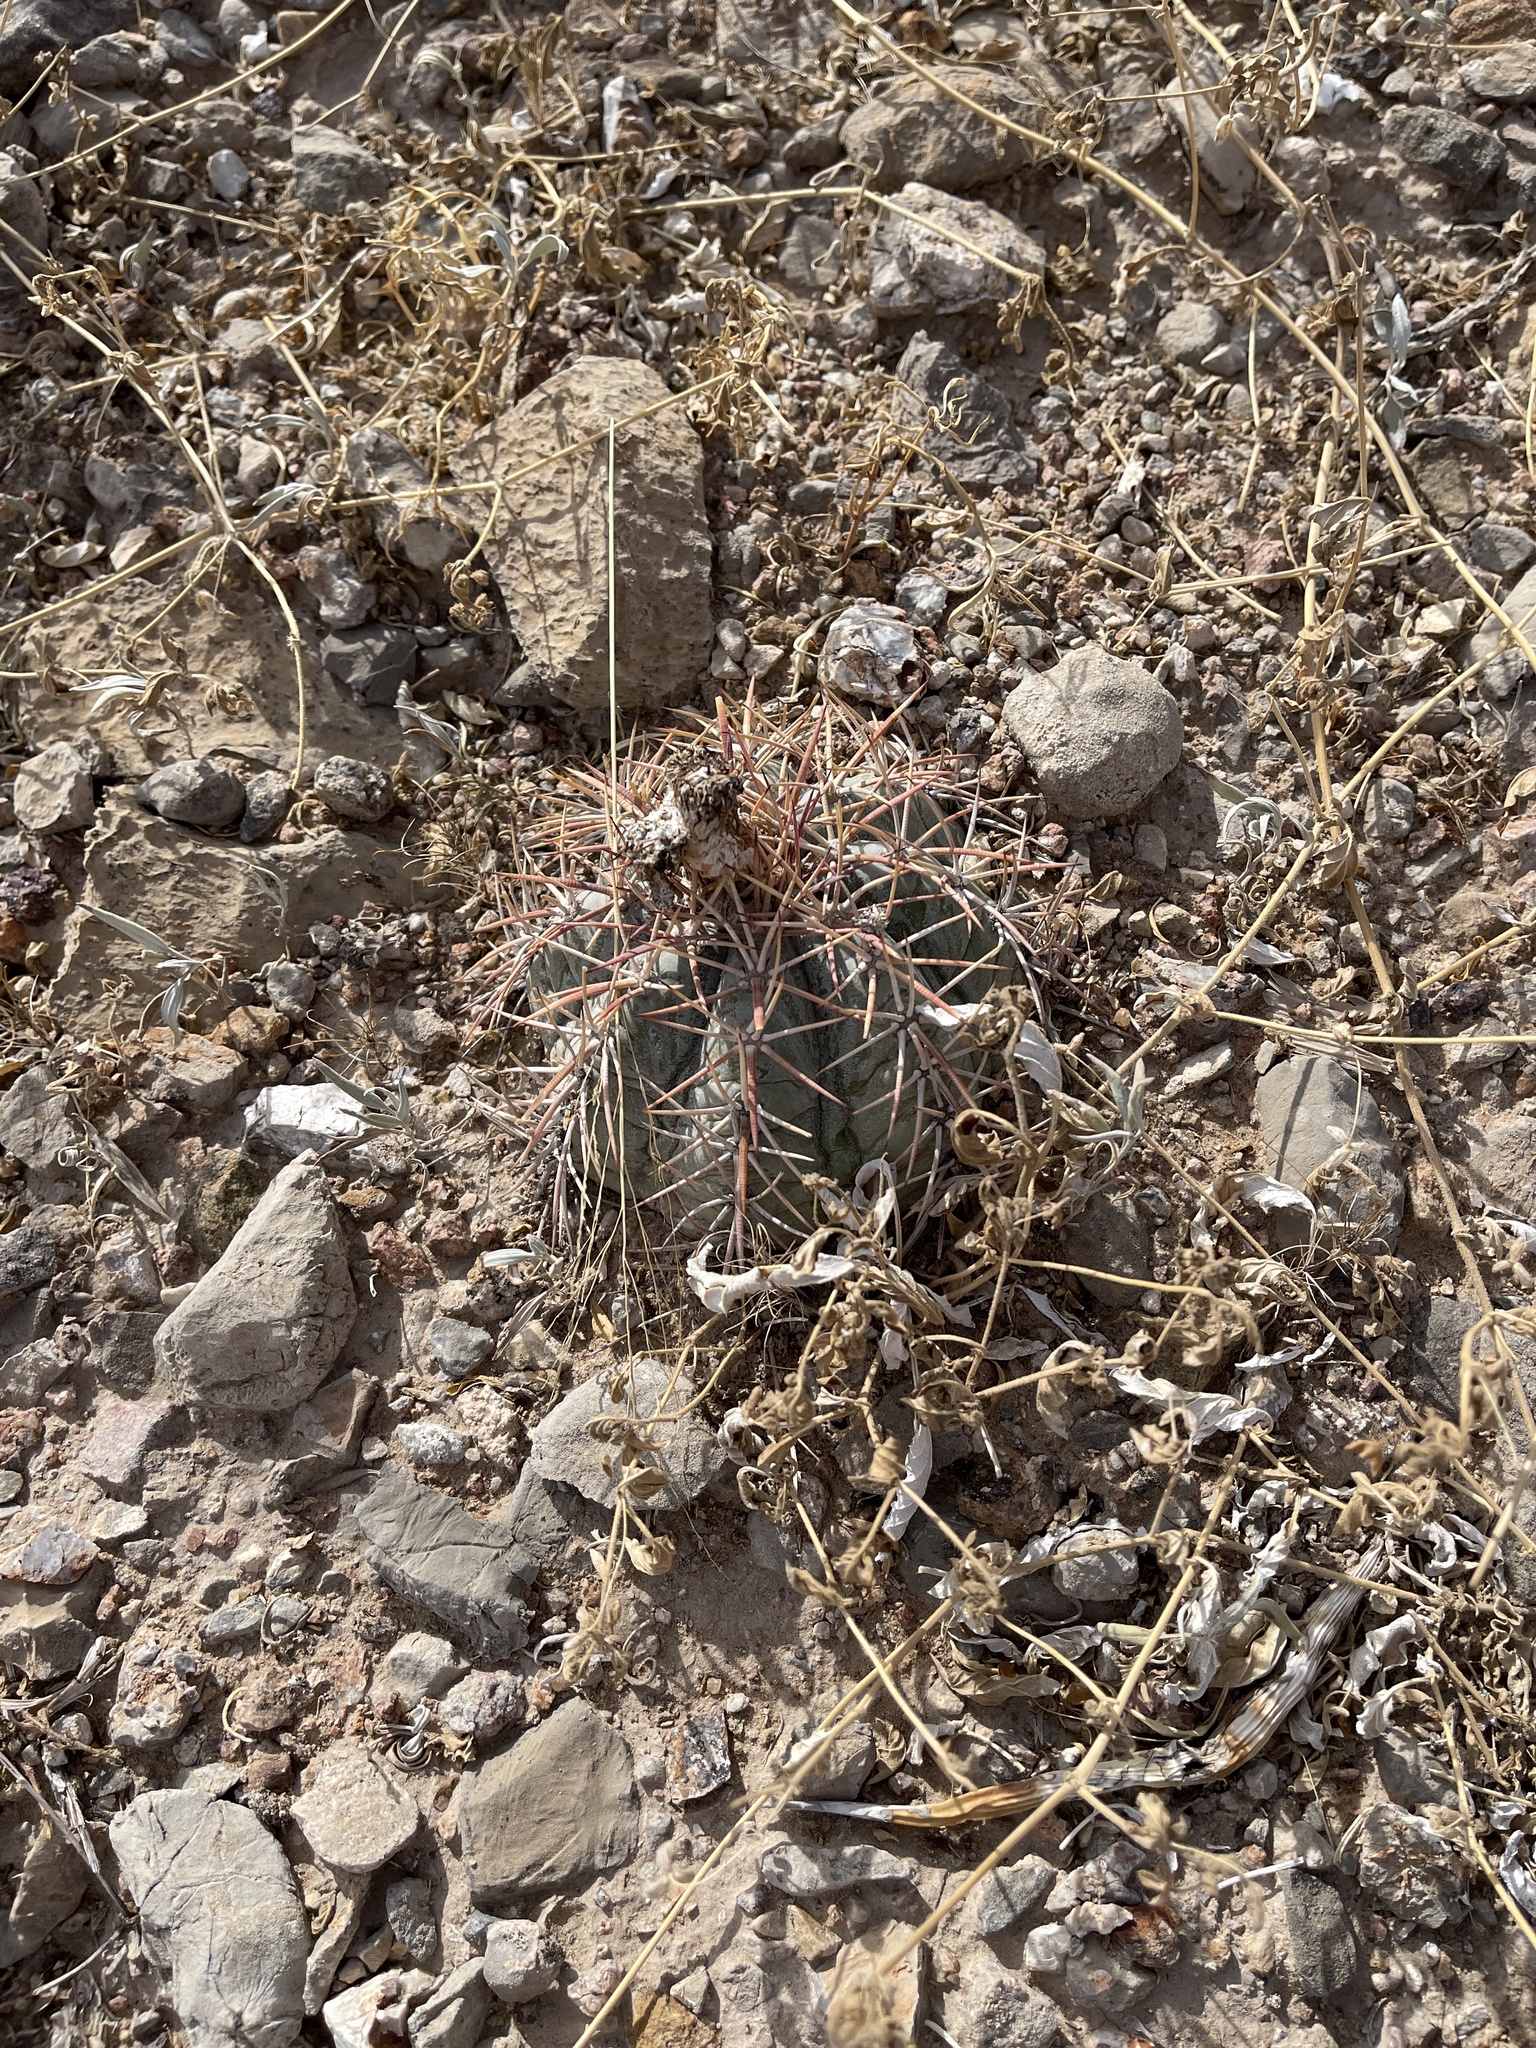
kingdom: Plantae
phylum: Tracheophyta
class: Magnoliopsida
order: Caryophyllales
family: Cactaceae
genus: Echinocactus
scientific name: Echinocactus horizonthalonius
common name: Devilshead
